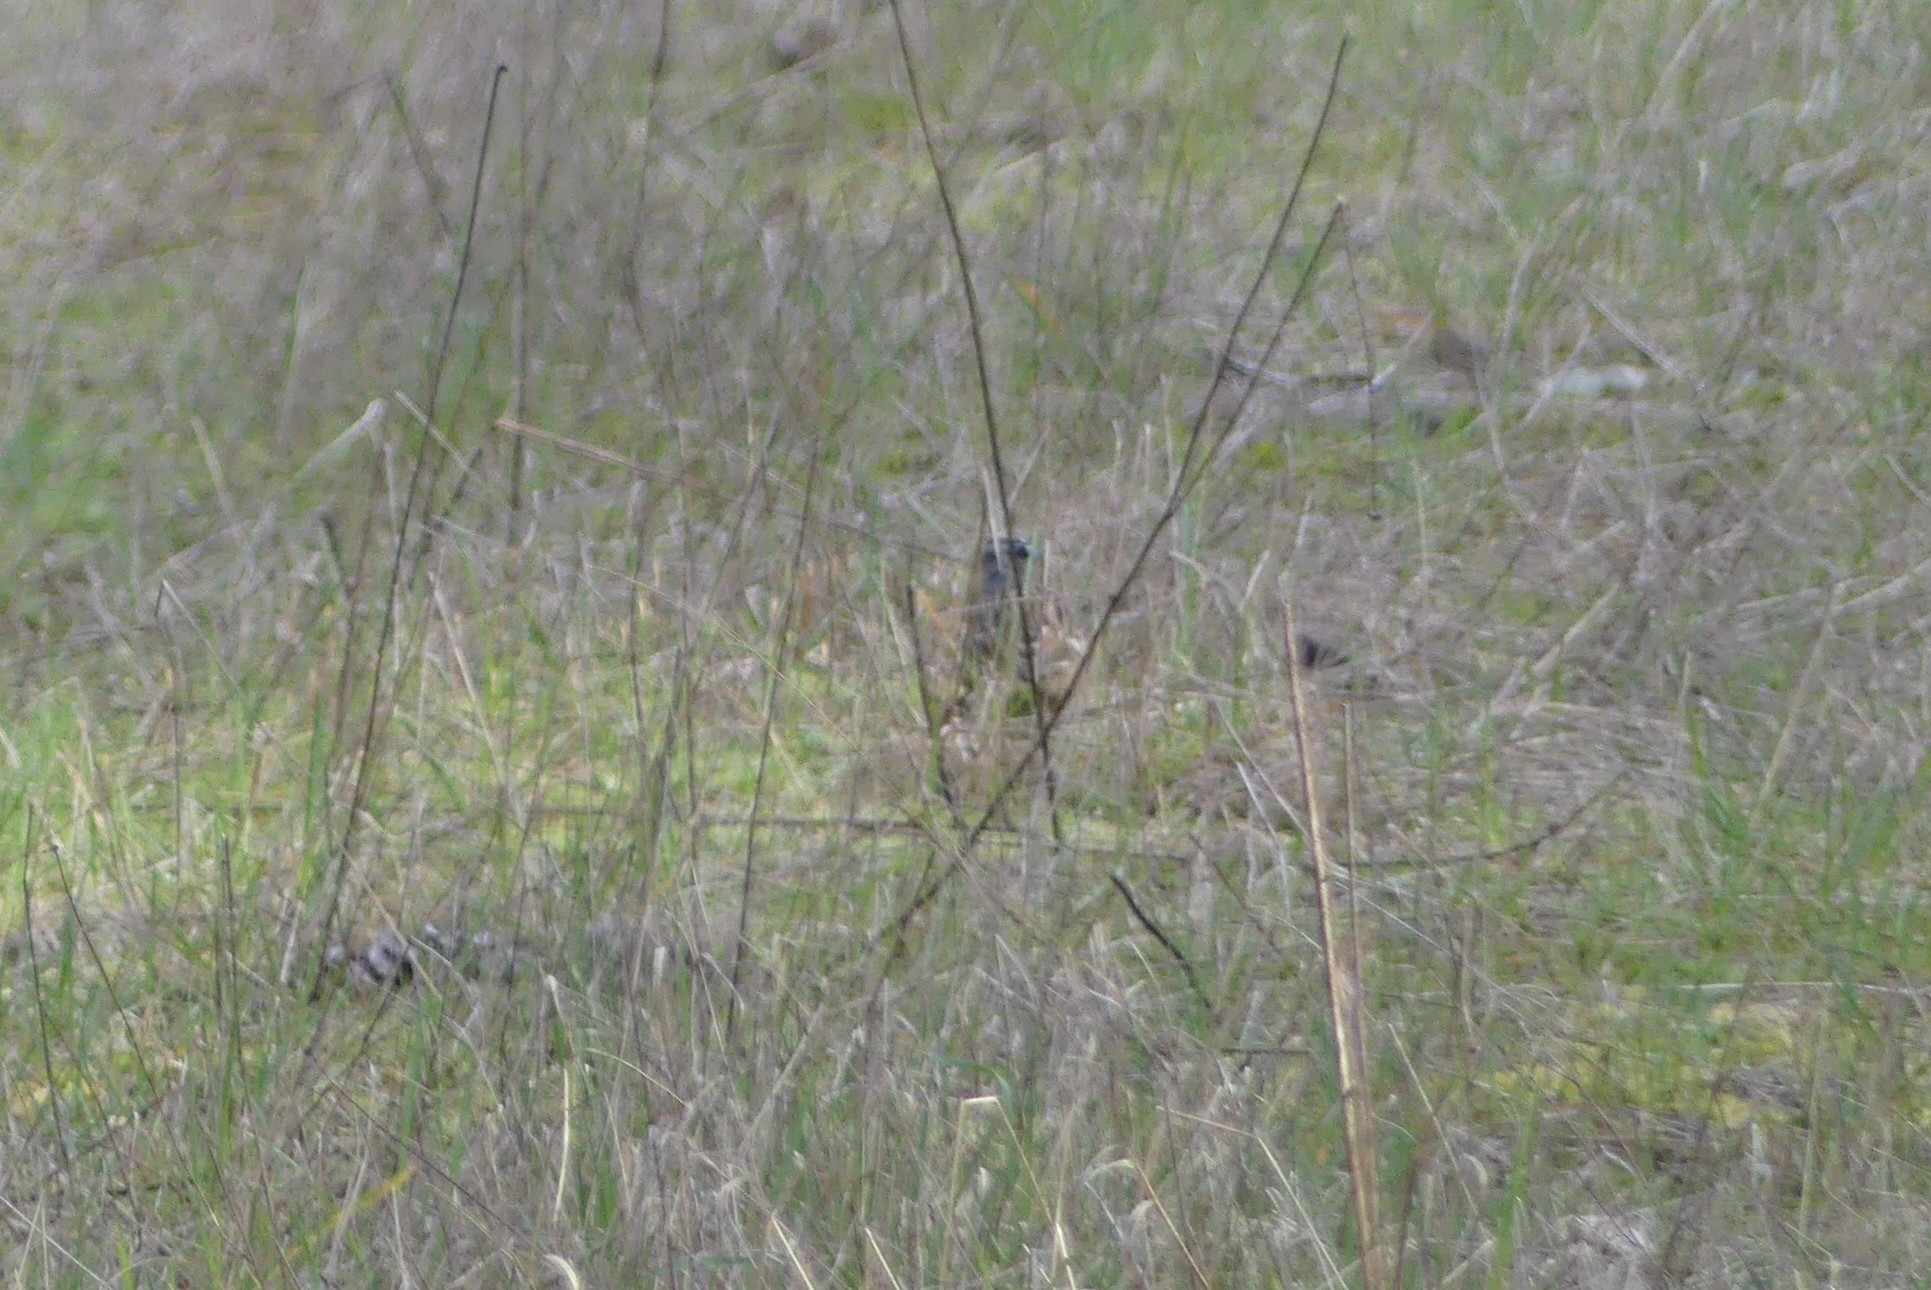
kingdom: Animalia
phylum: Chordata
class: Aves
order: Passeriformes
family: Passerellidae
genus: Zonotrichia
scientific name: Zonotrichia leucophrys
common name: White-crowned sparrow
